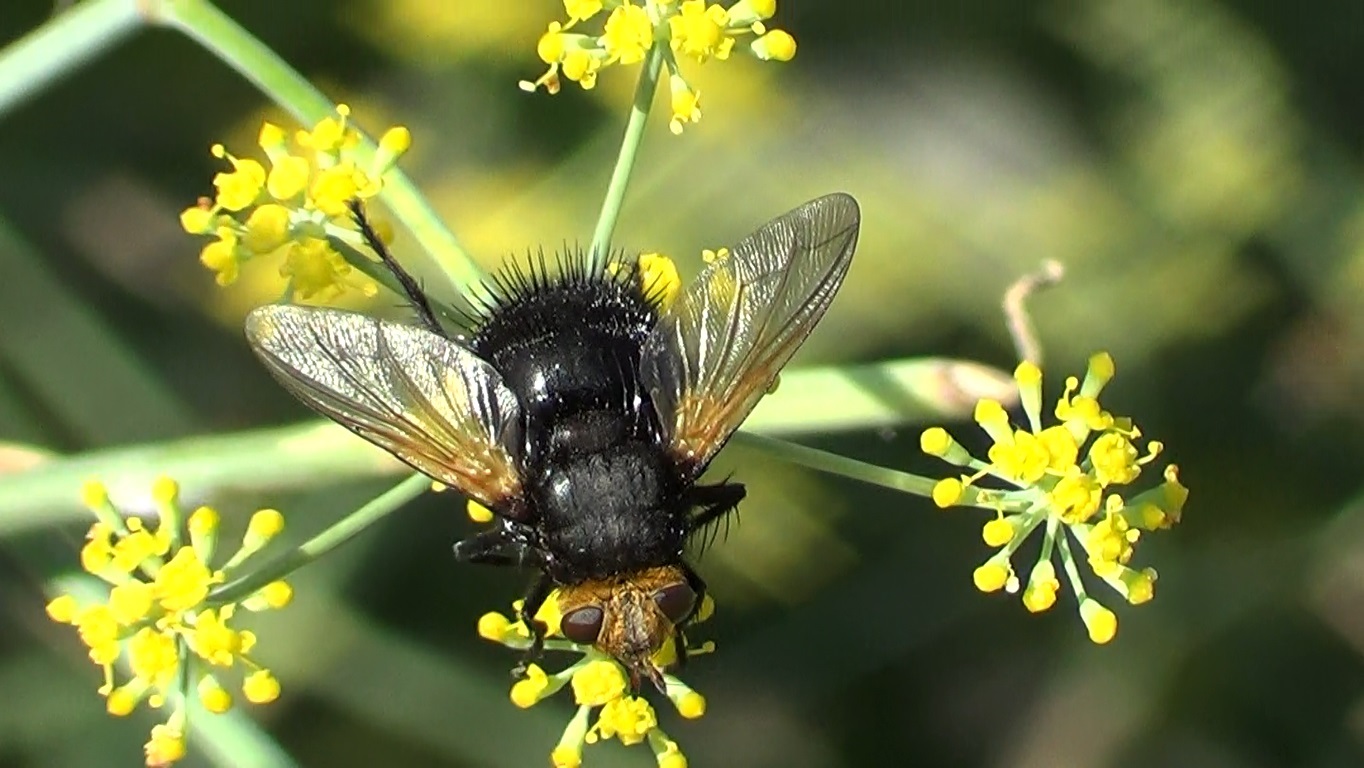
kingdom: Animalia
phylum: Arthropoda
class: Insecta
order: Diptera
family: Tachinidae
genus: Tachina
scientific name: Tachina grossa
